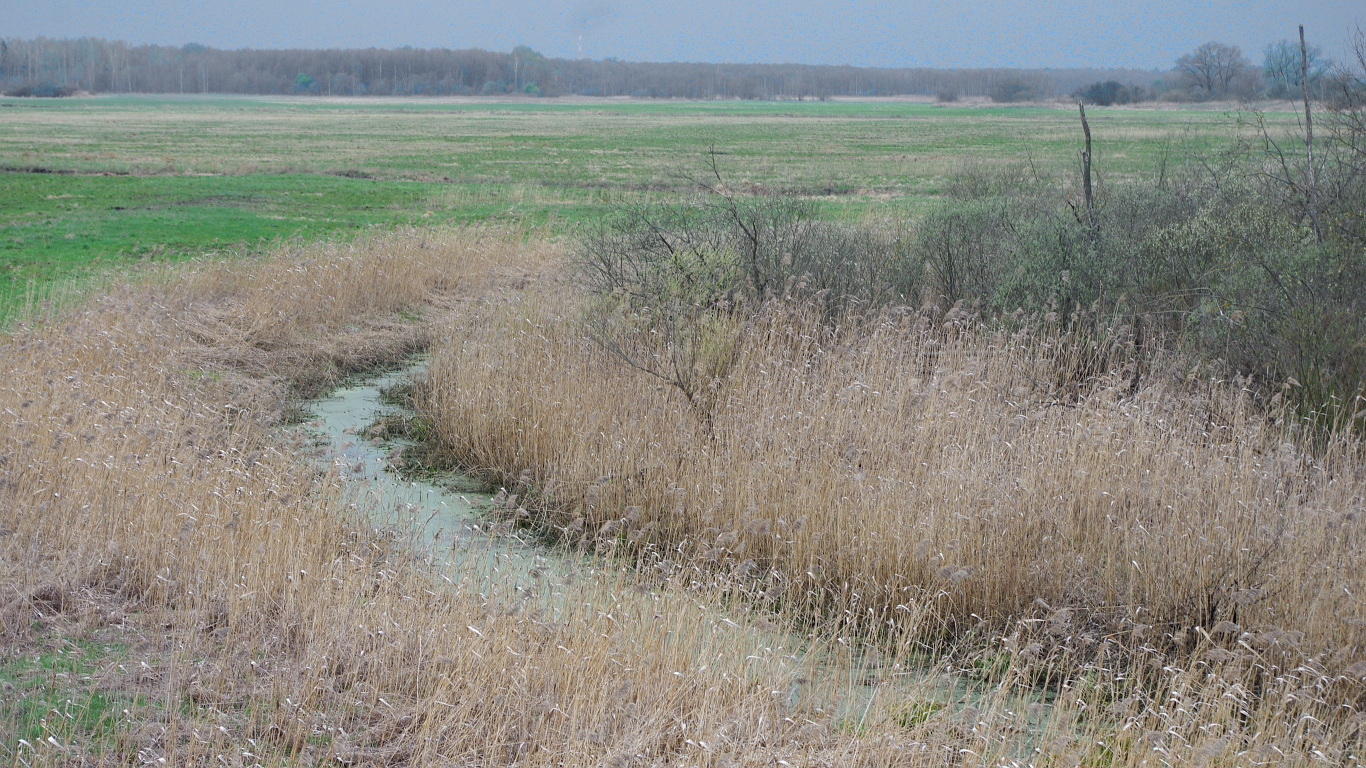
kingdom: Plantae
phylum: Tracheophyta
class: Liliopsida
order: Poales
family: Poaceae
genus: Phragmites
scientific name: Phragmites australis
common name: Common reed
